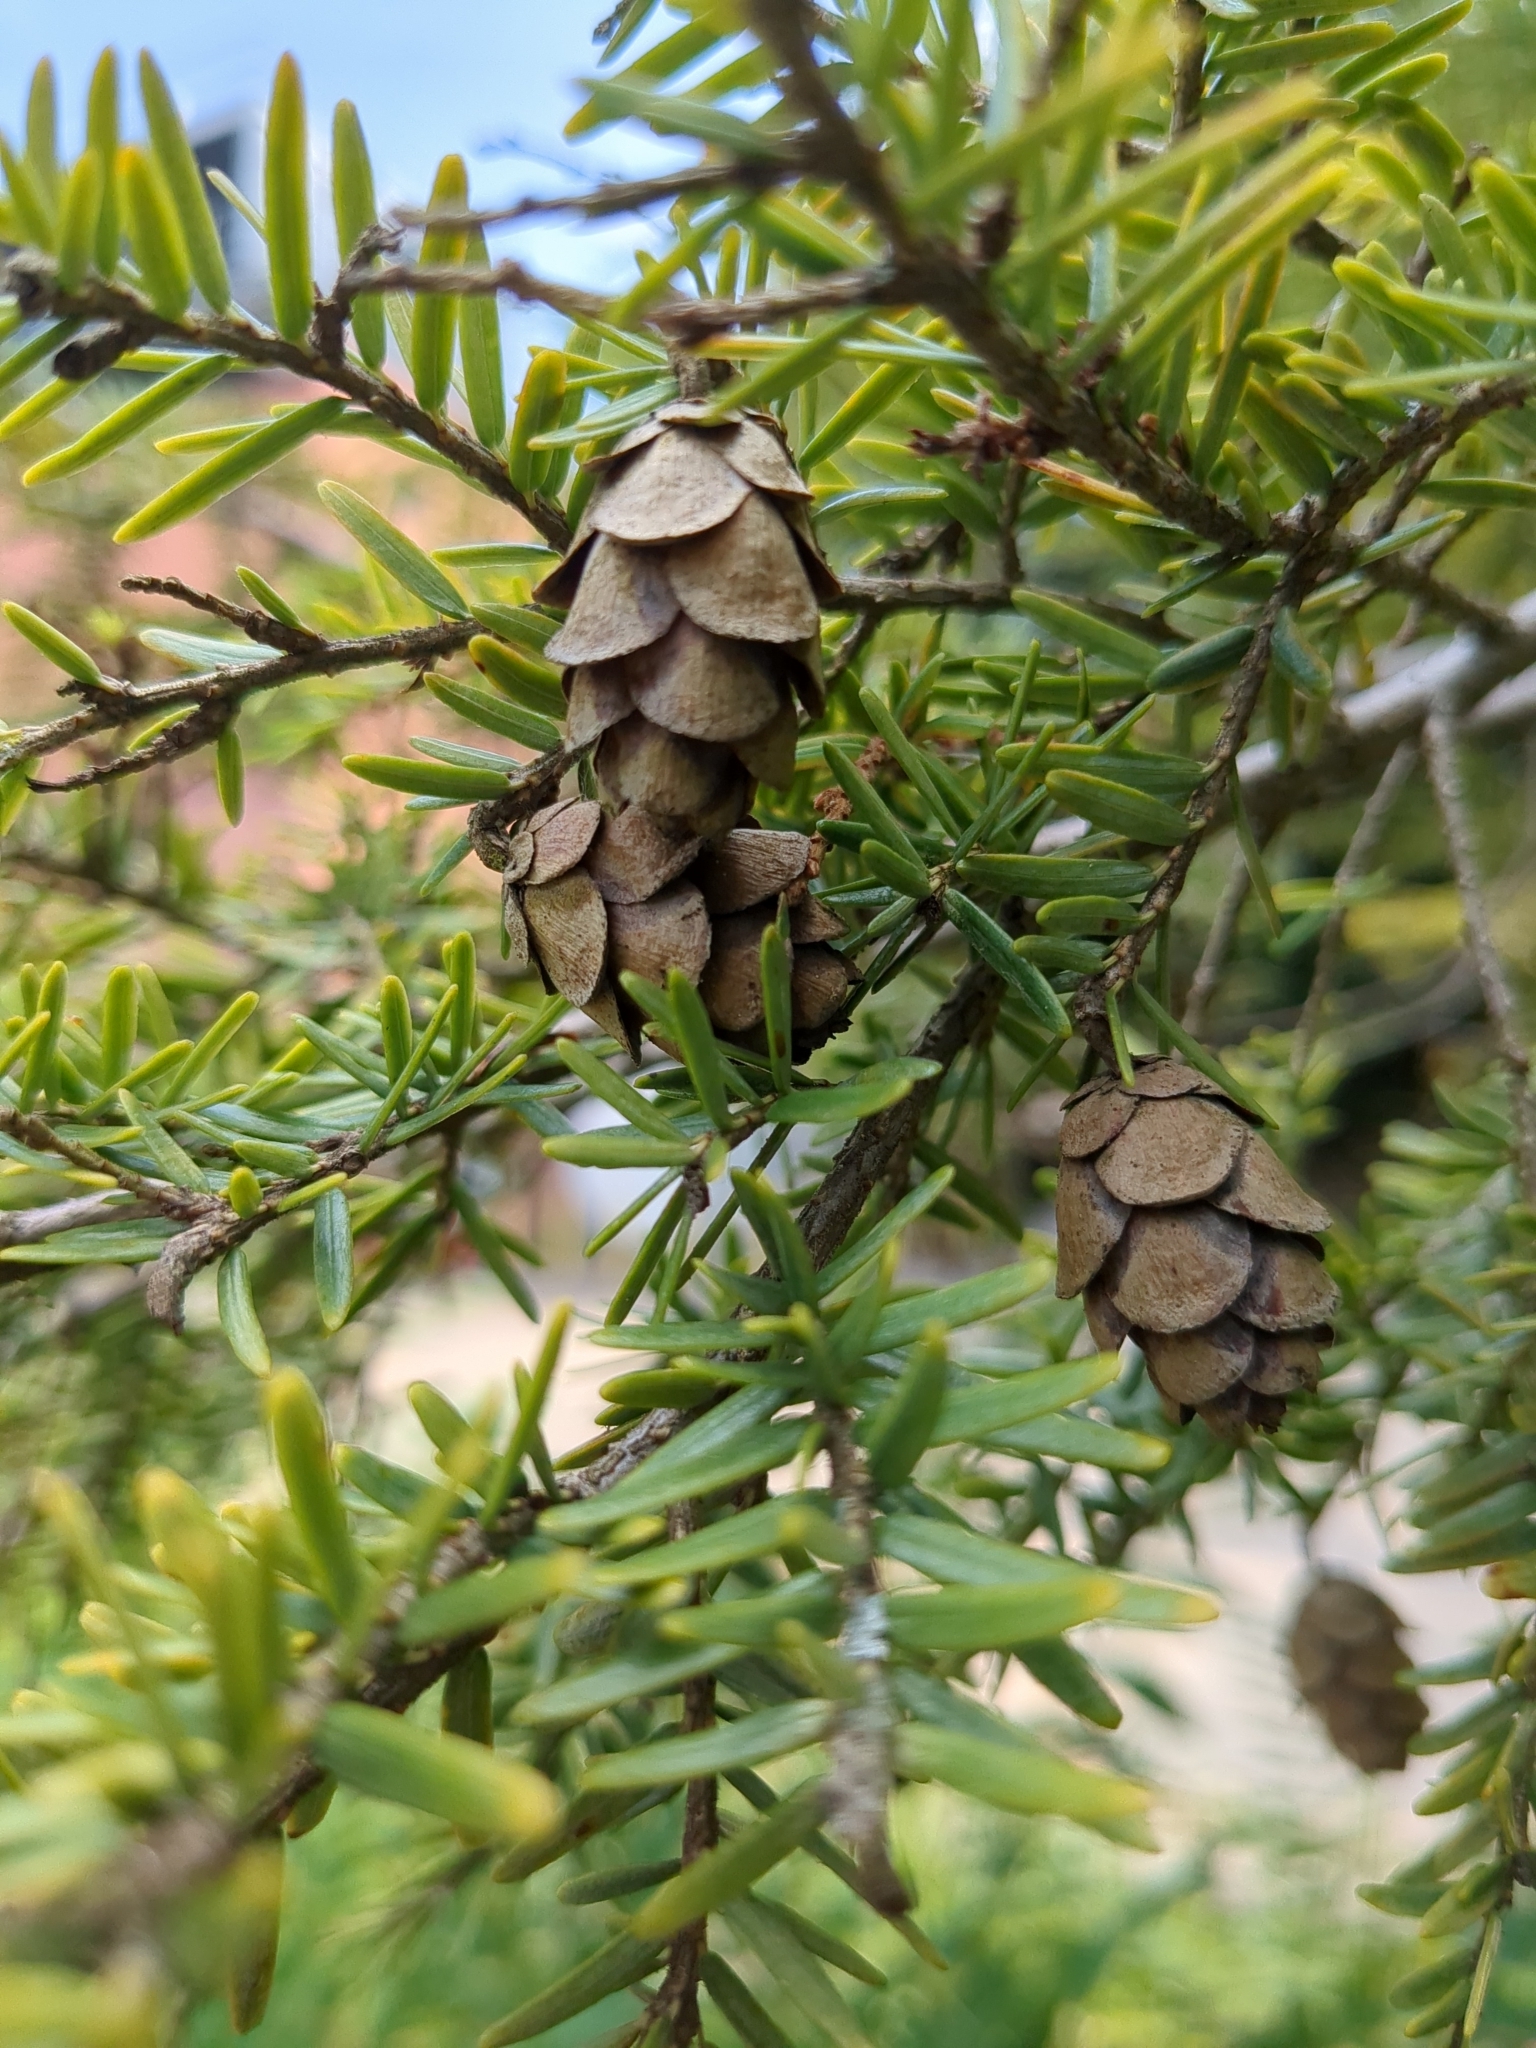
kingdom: Plantae
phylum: Tracheophyta
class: Pinopsida
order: Pinales
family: Pinaceae
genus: Tsuga
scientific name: Tsuga canadensis
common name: Eastern hemlock
